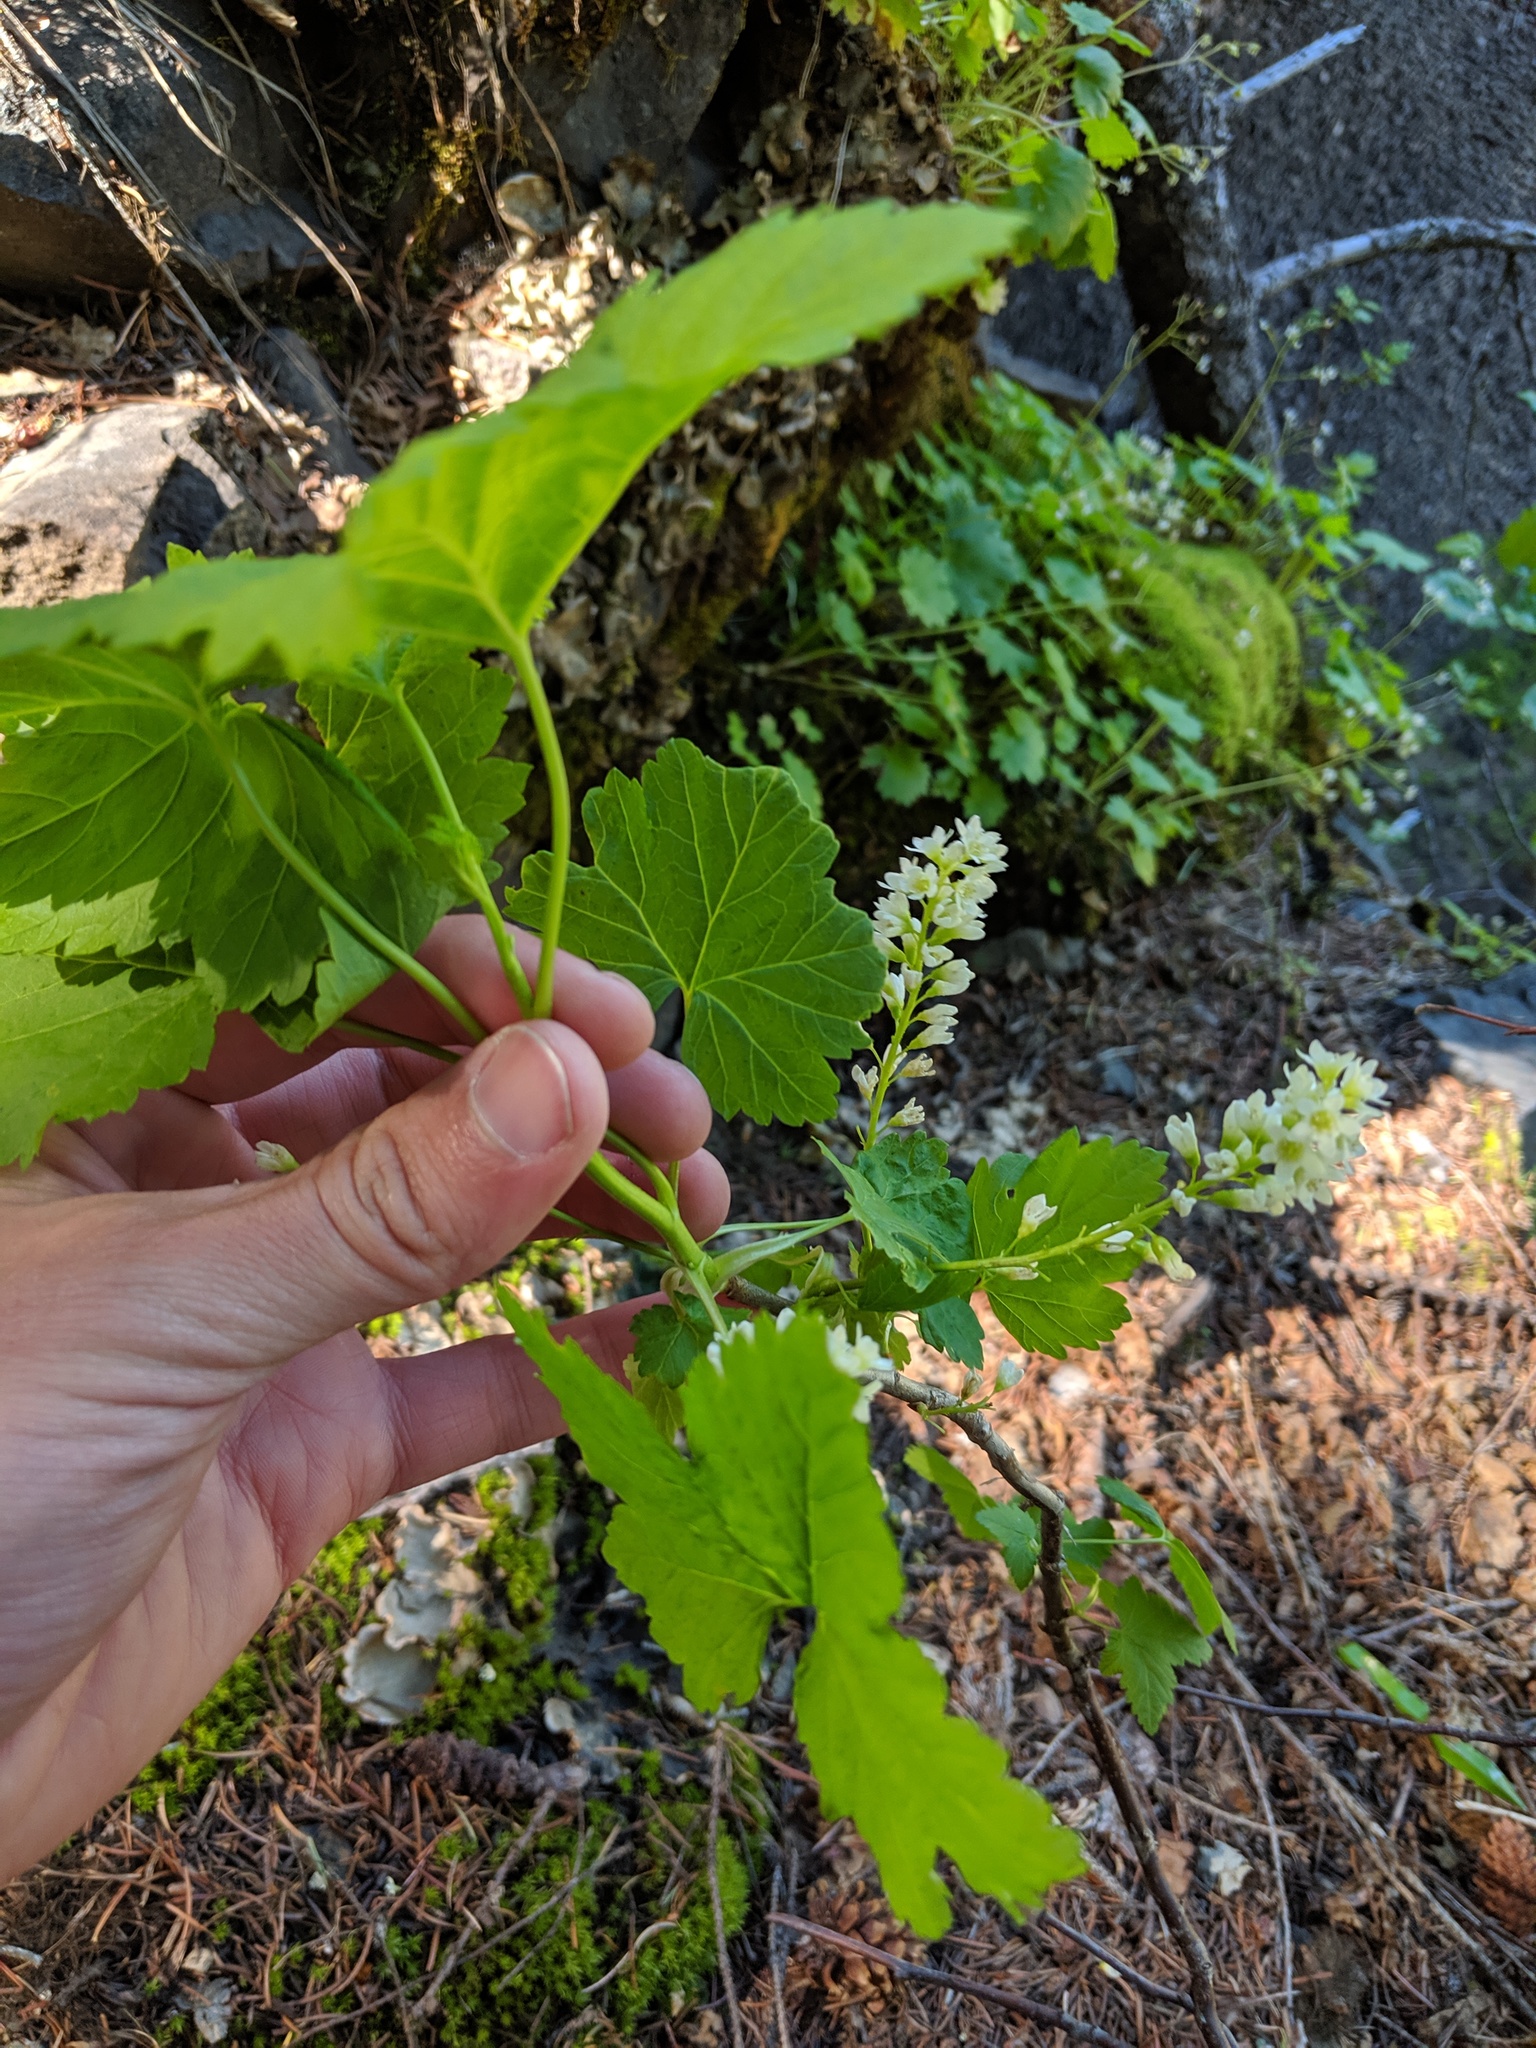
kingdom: Plantae
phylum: Tracheophyta
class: Magnoliopsida
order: Saxifragales
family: Grossulariaceae
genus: Ribes
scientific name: Ribes hudsonianum
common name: Northern black currant
